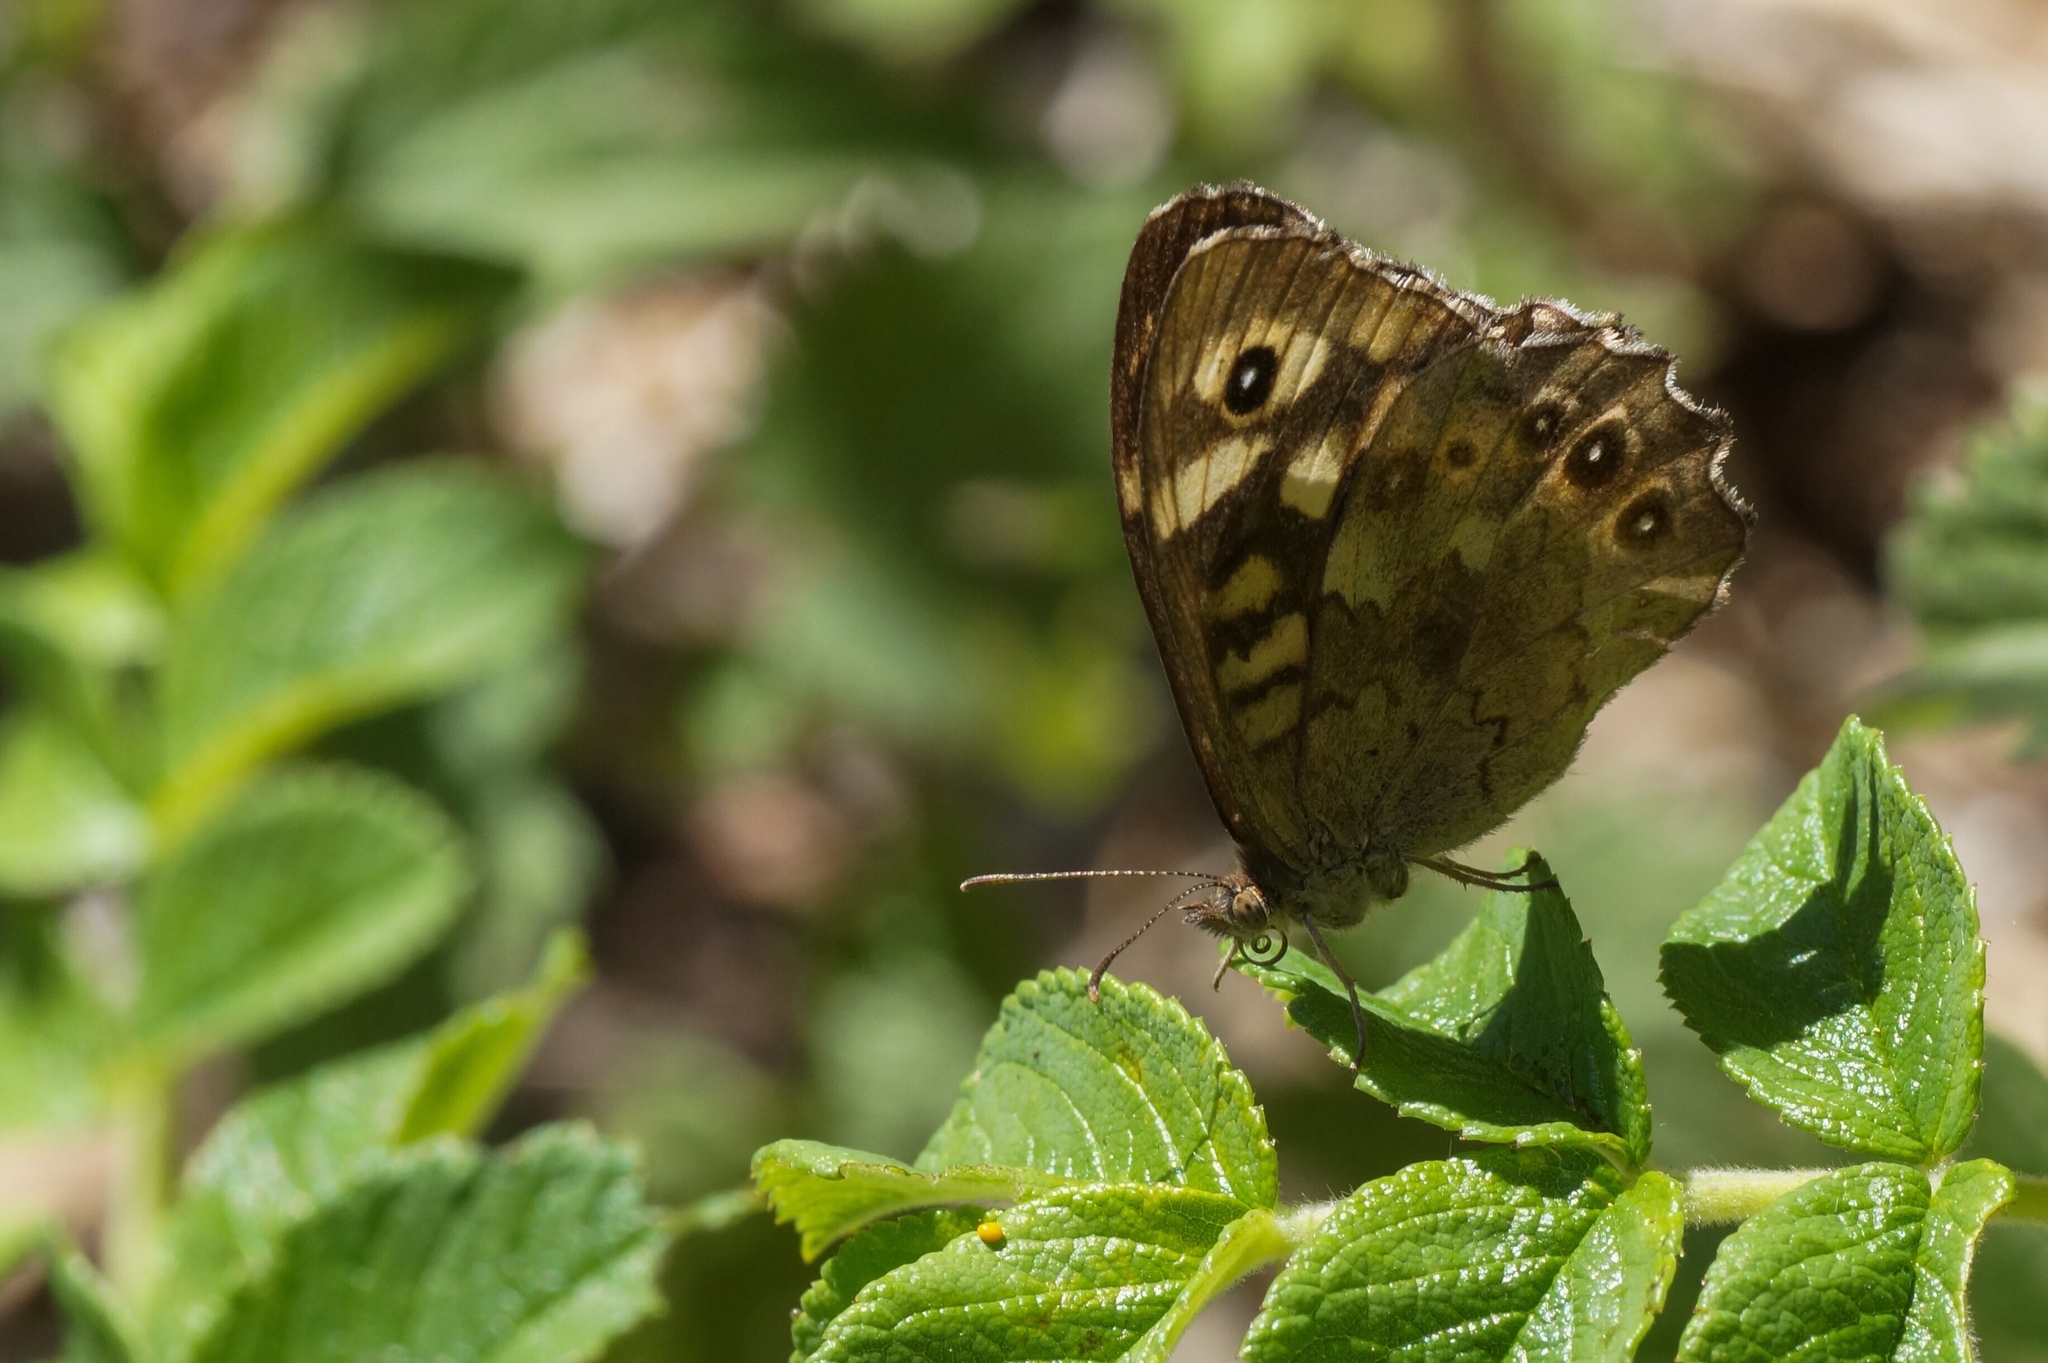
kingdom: Animalia
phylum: Arthropoda
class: Insecta
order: Lepidoptera
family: Nymphalidae
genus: Pararge
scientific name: Pararge aegeria
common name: Speckled wood
